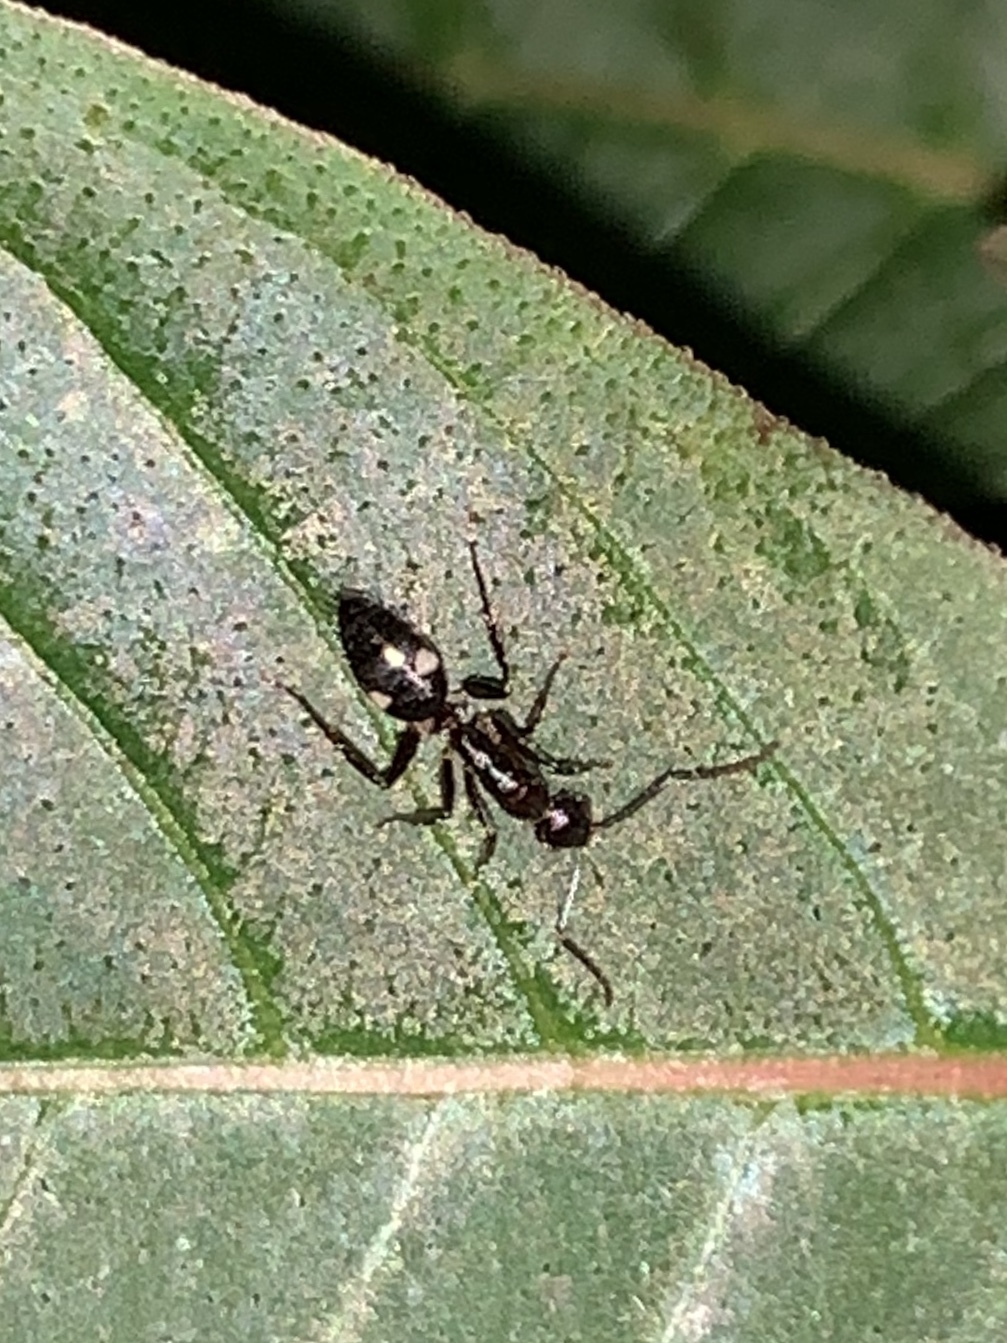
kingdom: Animalia
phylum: Arthropoda
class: Insecta
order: Hymenoptera
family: Formicidae
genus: Camponotus
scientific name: Camponotus sexguttatus
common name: Neotropical carpenter ant
